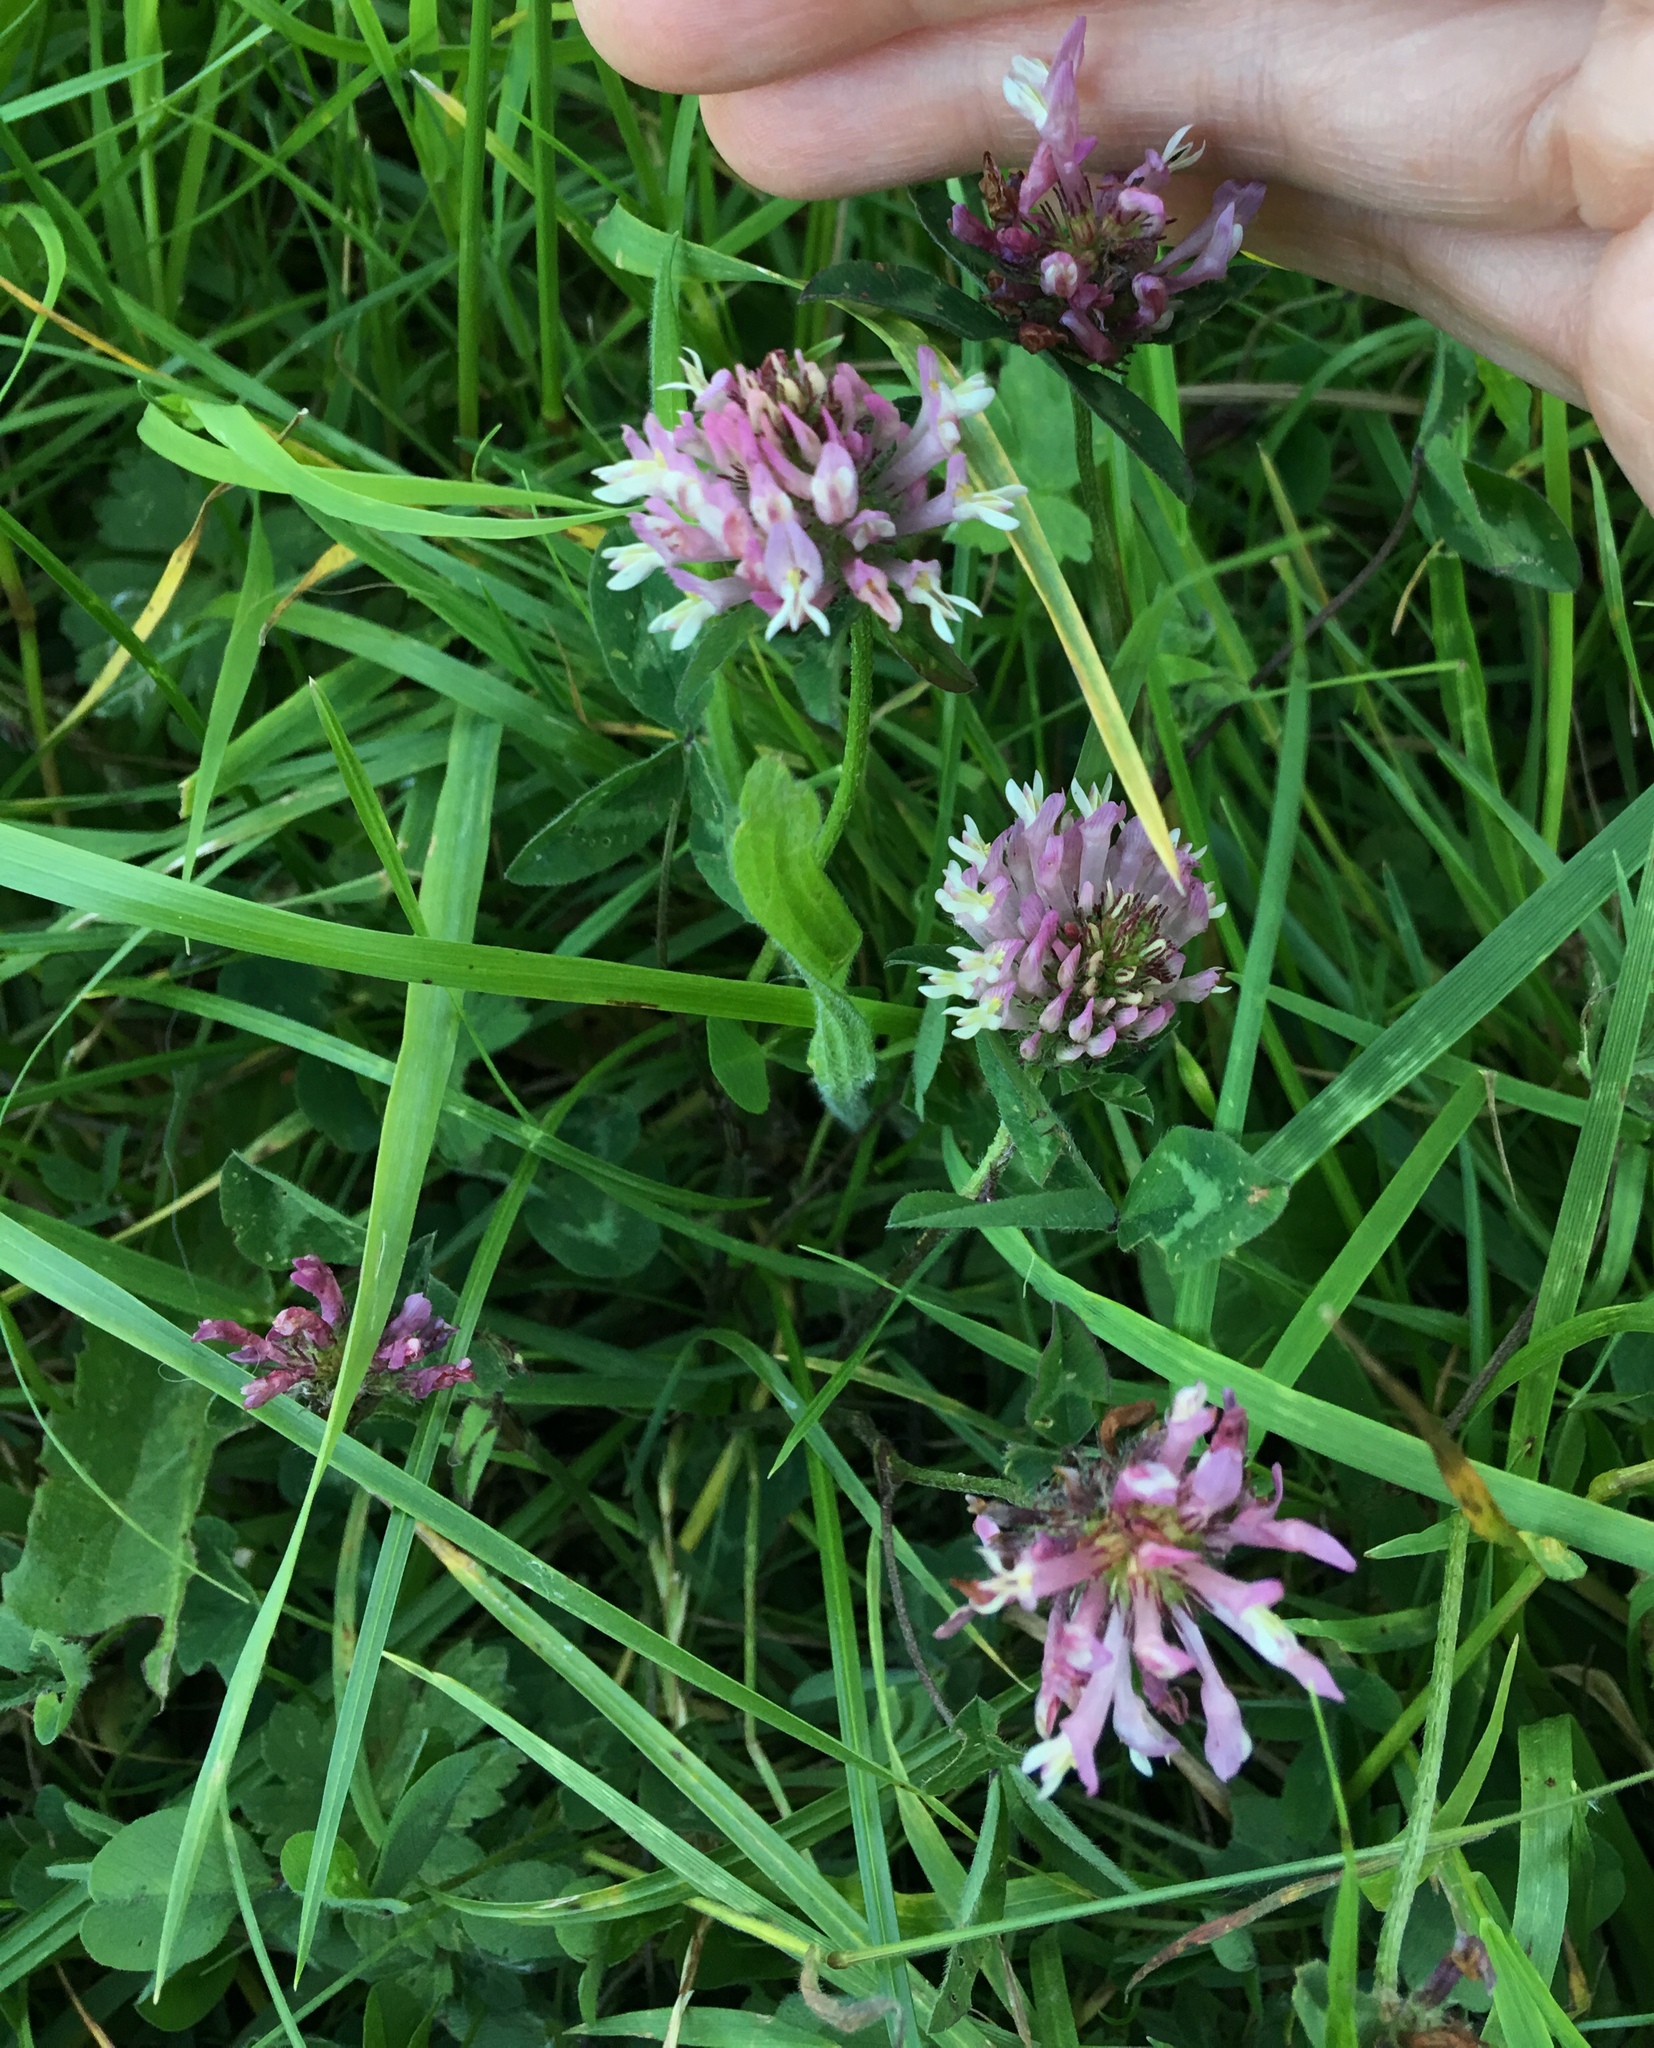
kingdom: Plantae
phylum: Tracheophyta
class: Magnoliopsida
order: Fabales
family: Fabaceae
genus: Trifolium
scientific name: Trifolium pratense
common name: Red clover
